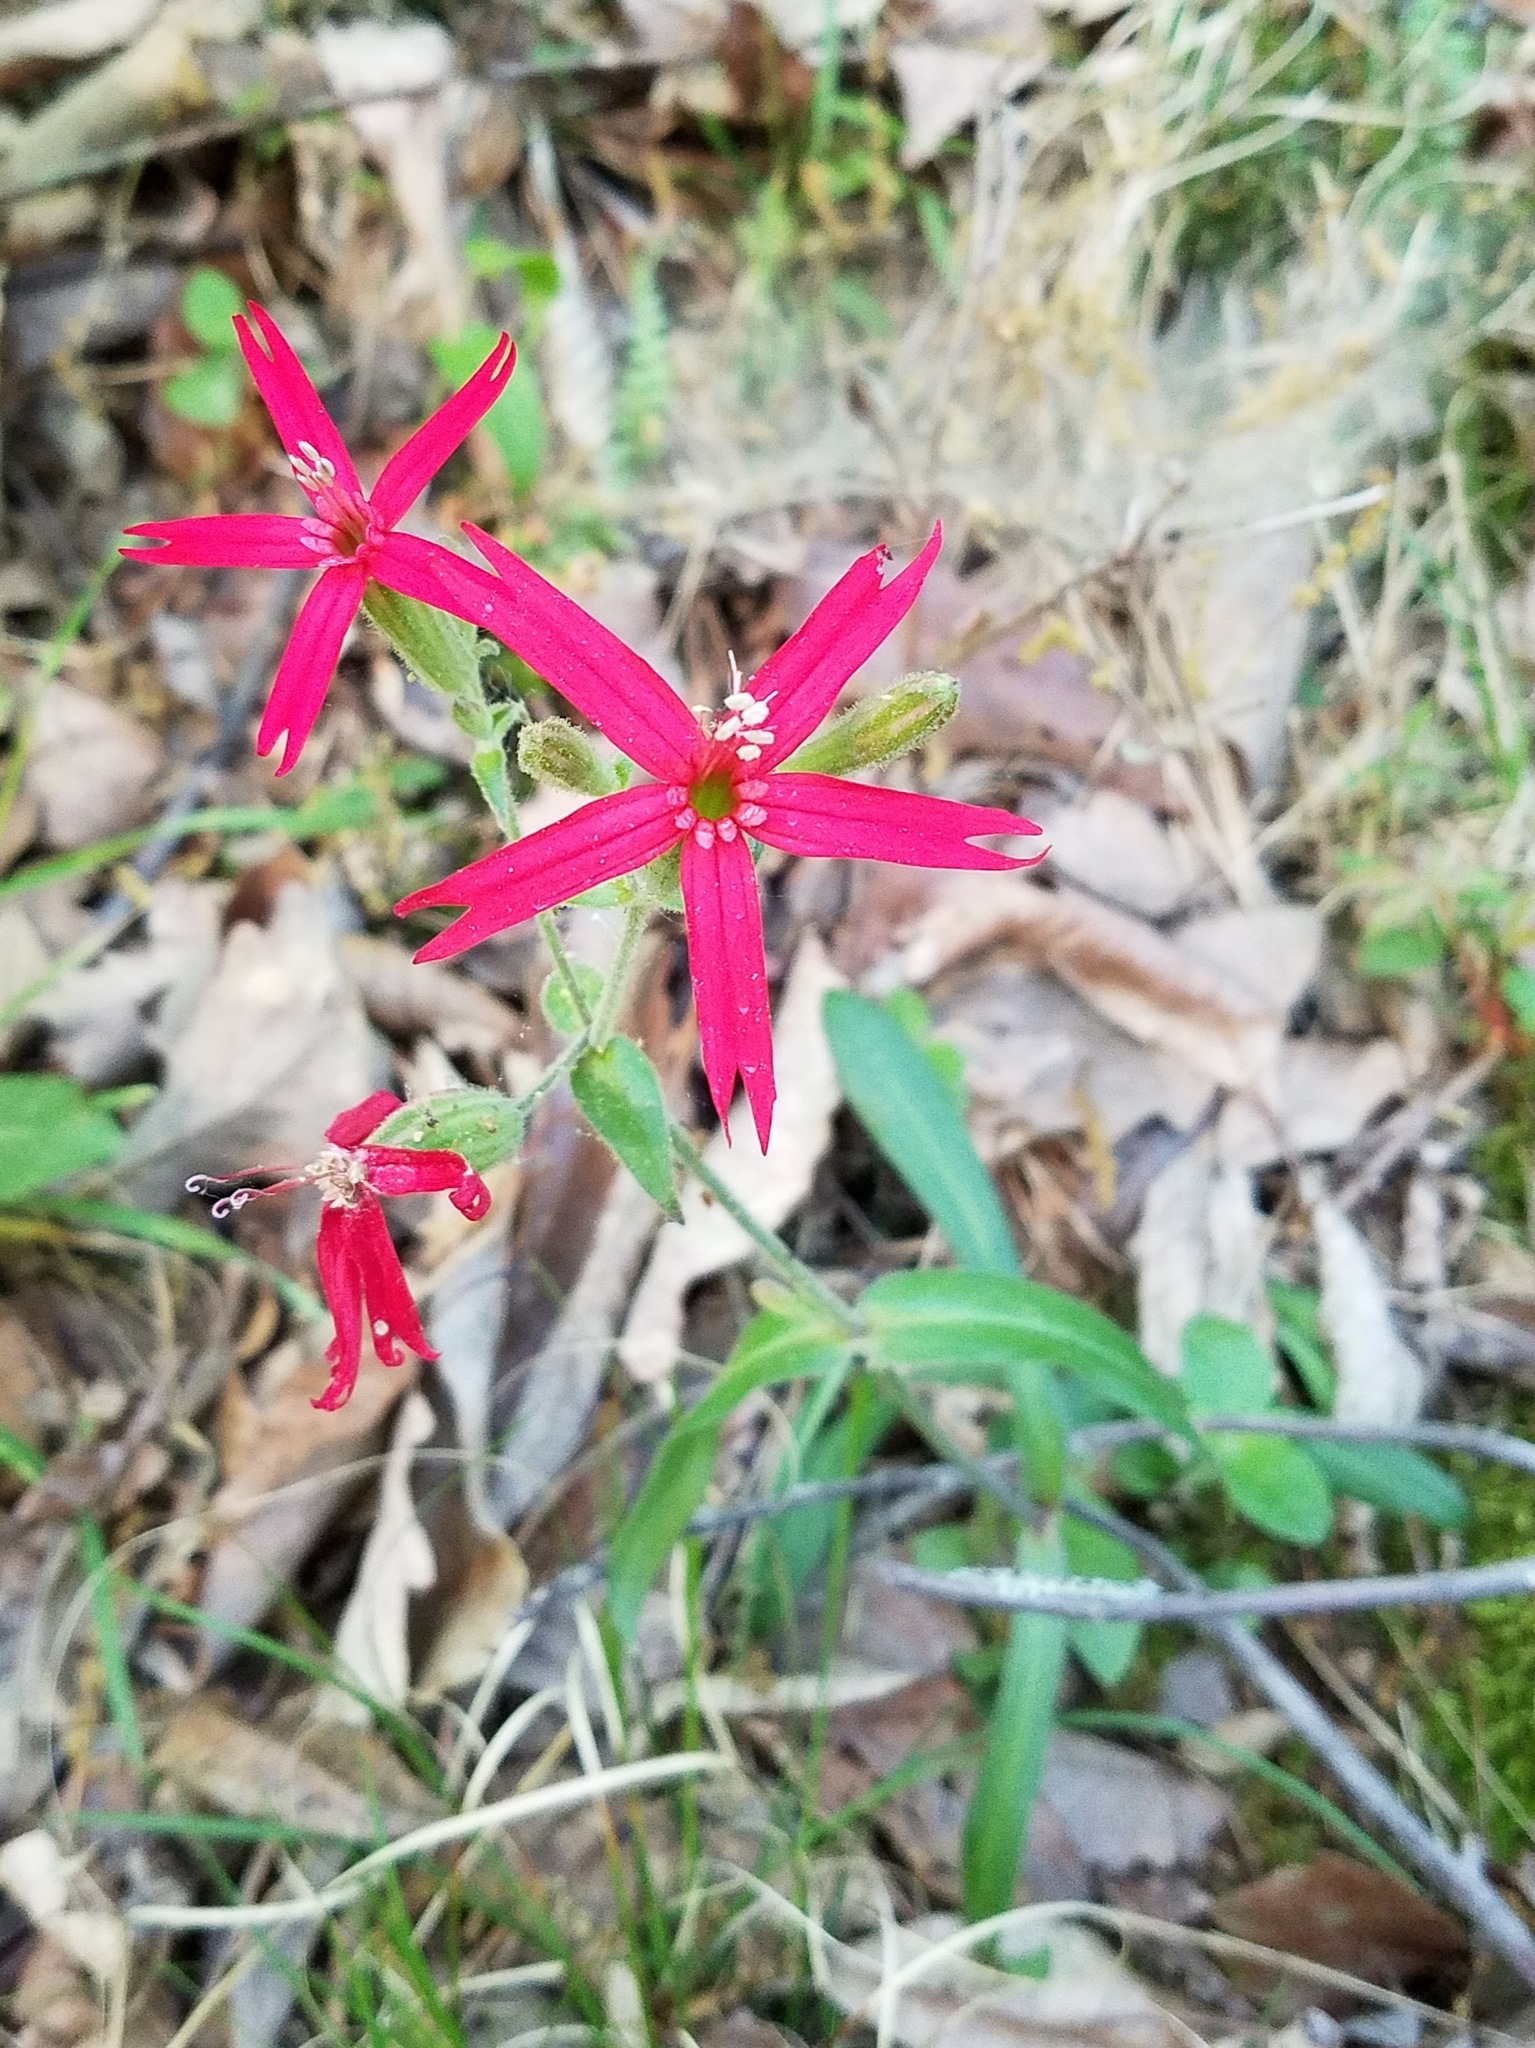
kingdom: Plantae
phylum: Tracheophyta
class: Magnoliopsida
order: Caryophyllales
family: Caryophyllaceae
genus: Silene
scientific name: Silene virginica
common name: Fire-pink
